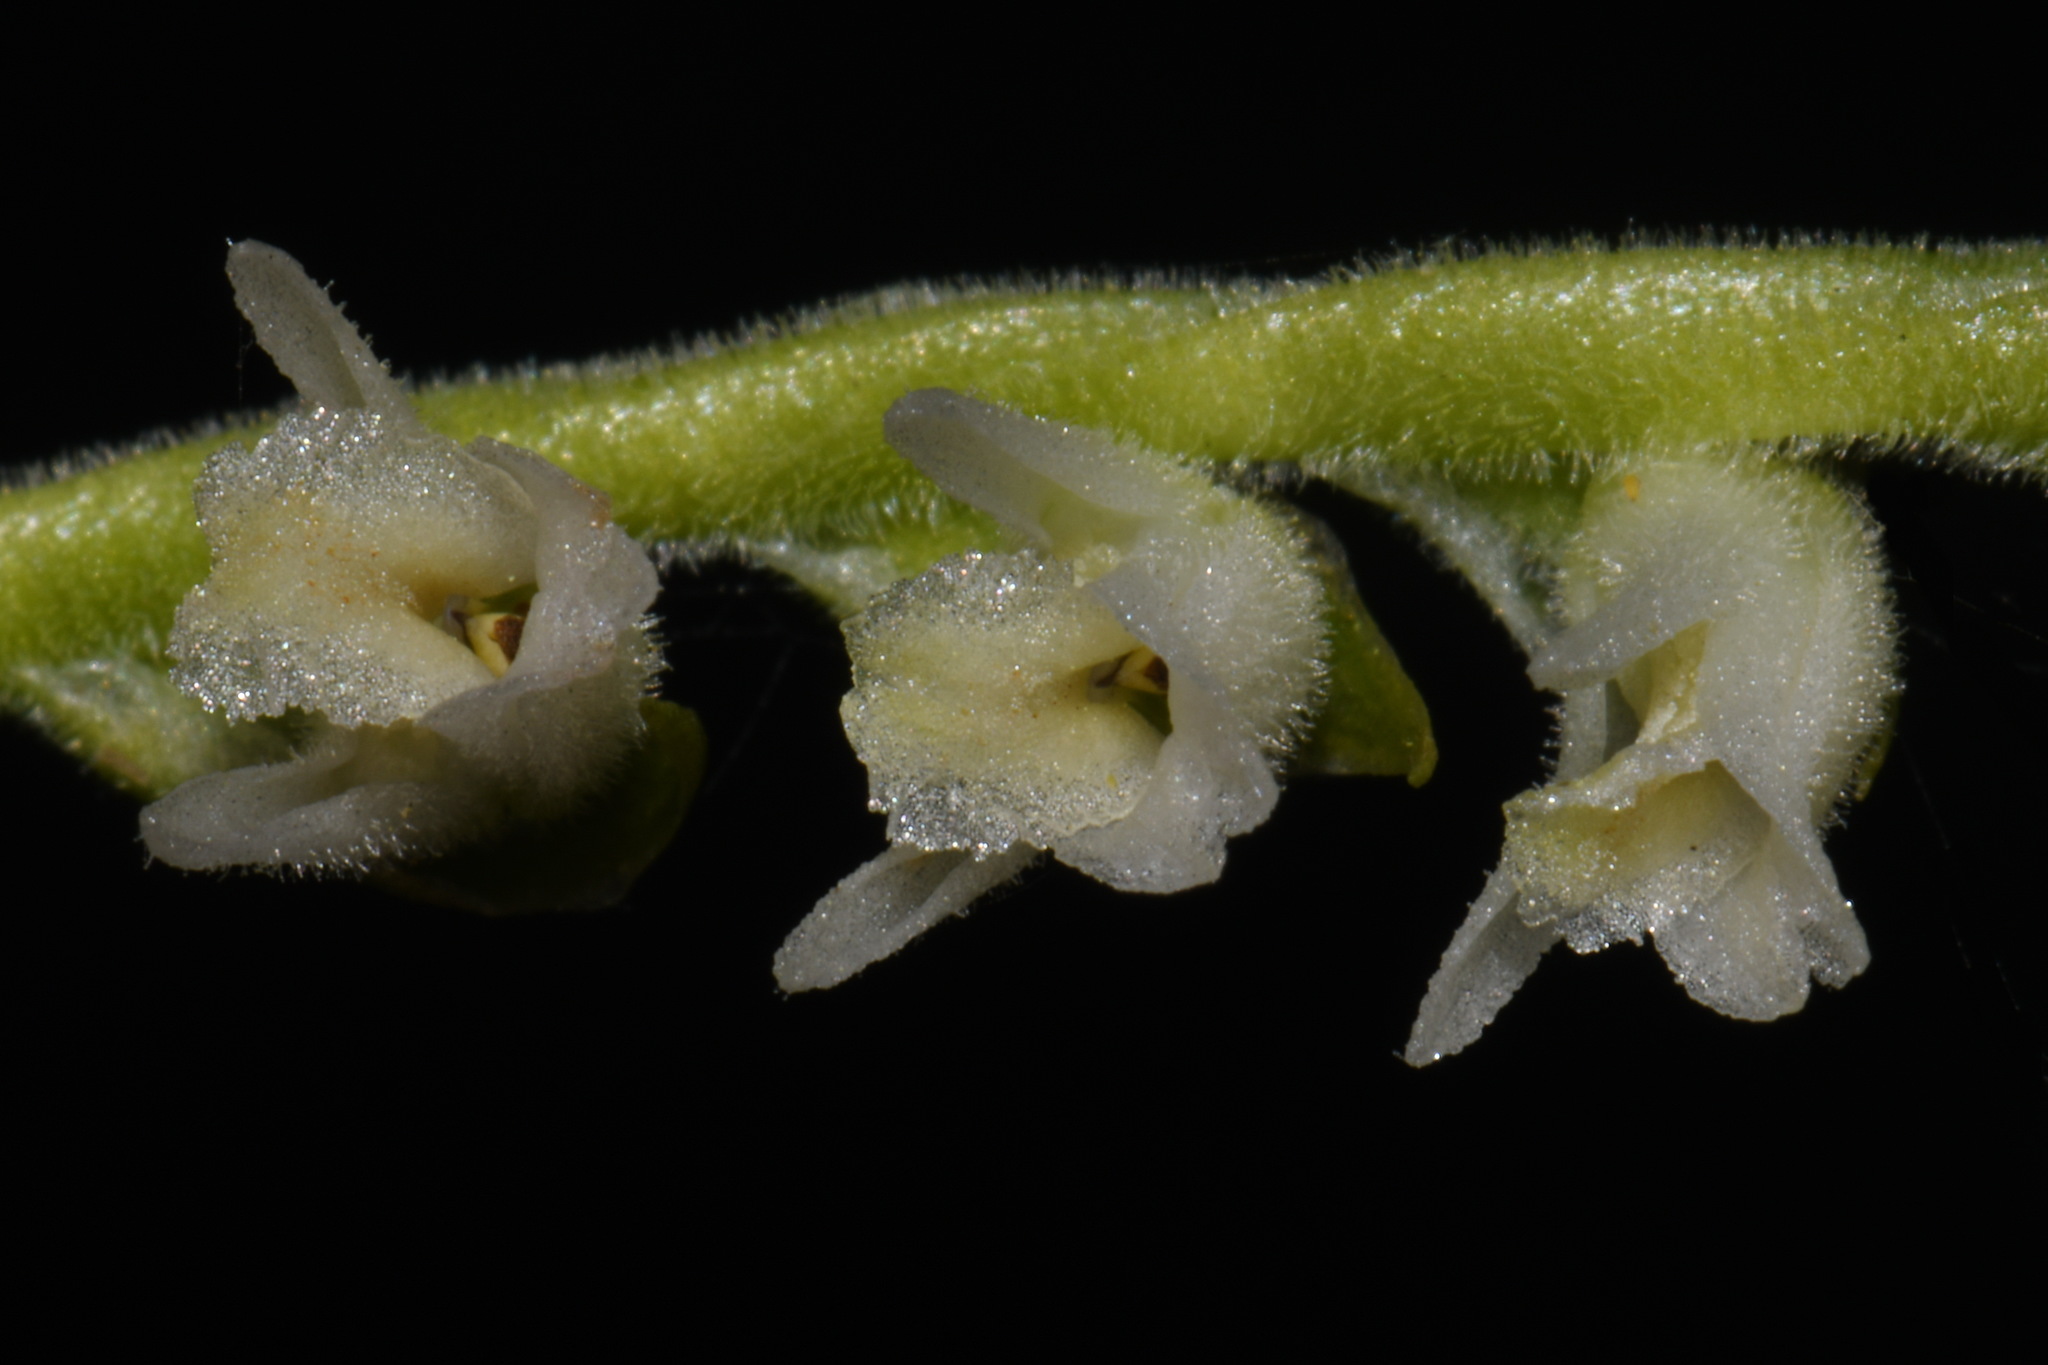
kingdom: Plantae
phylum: Tracheophyta
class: Liliopsida
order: Asparagales
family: Orchidaceae
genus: Spiranthes
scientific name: Spiranthes vernalis
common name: Spring ladies'-tresses
